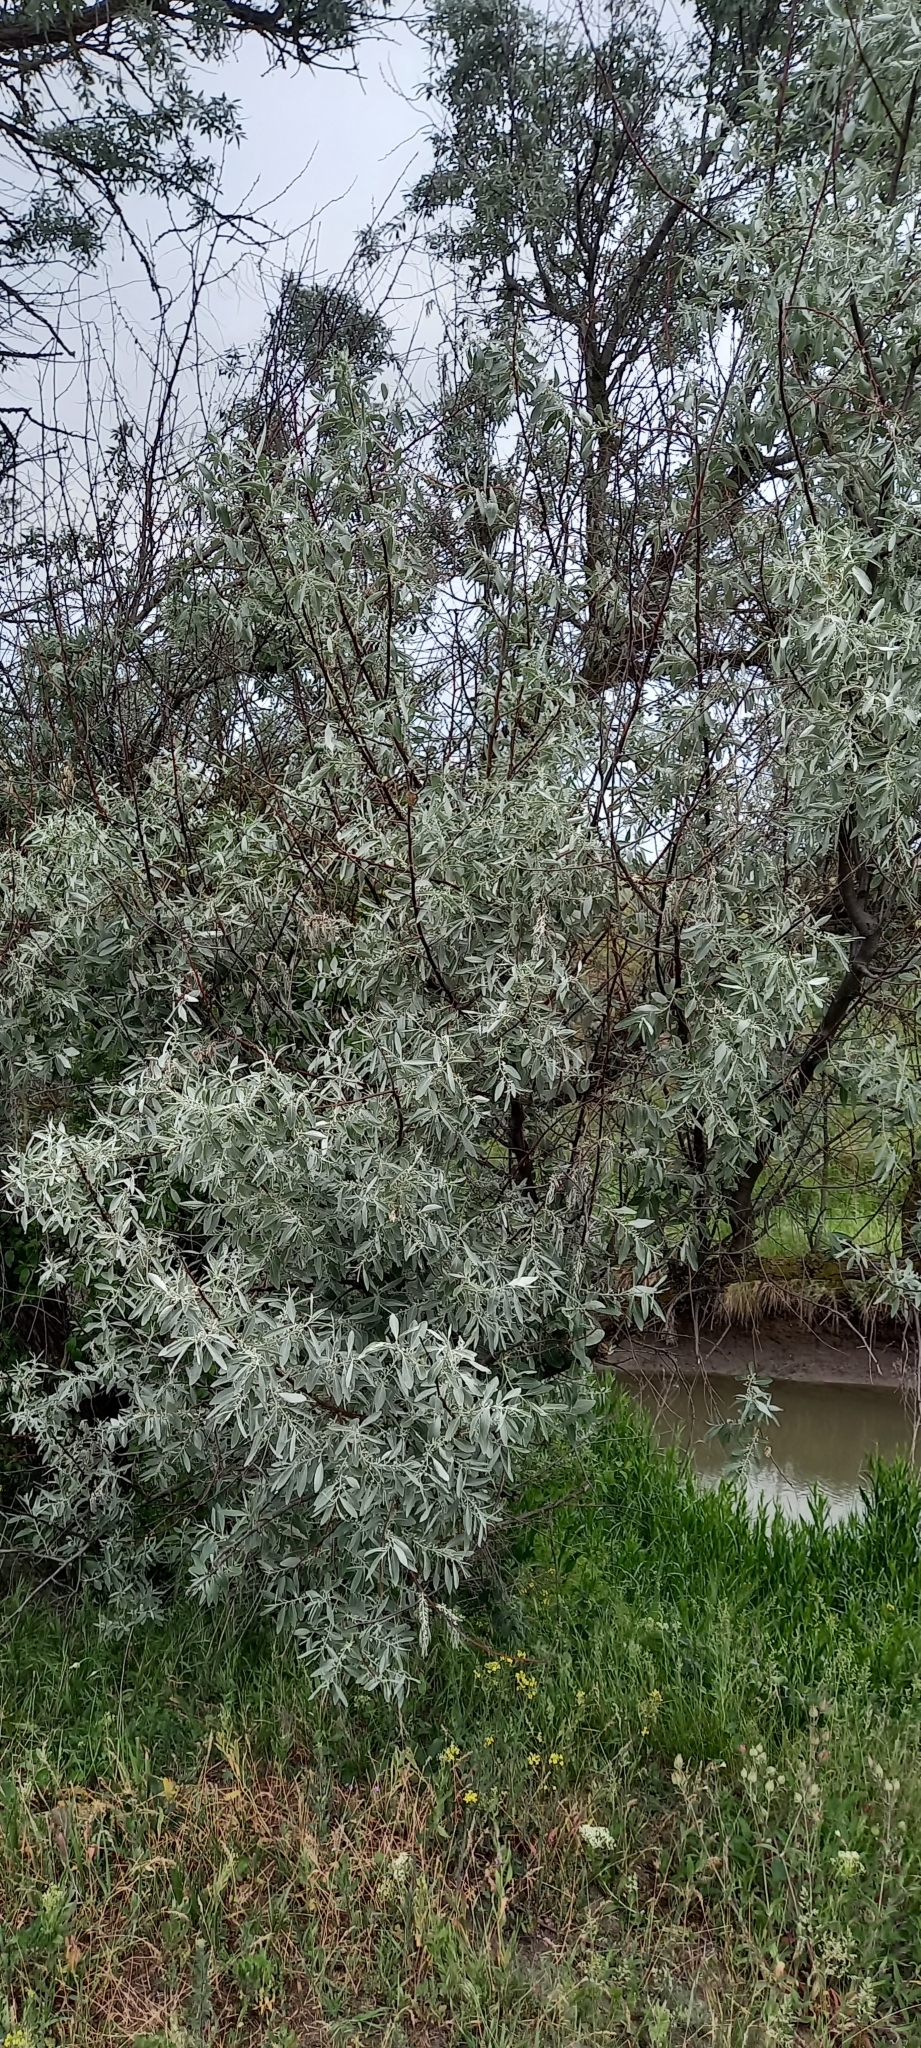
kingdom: Plantae
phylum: Tracheophyta
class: Magnoliopsida
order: Rosales
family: Elaeagnaceae
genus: Elaeagnus
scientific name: Elaeagnus angustifolia
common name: Russian olive
